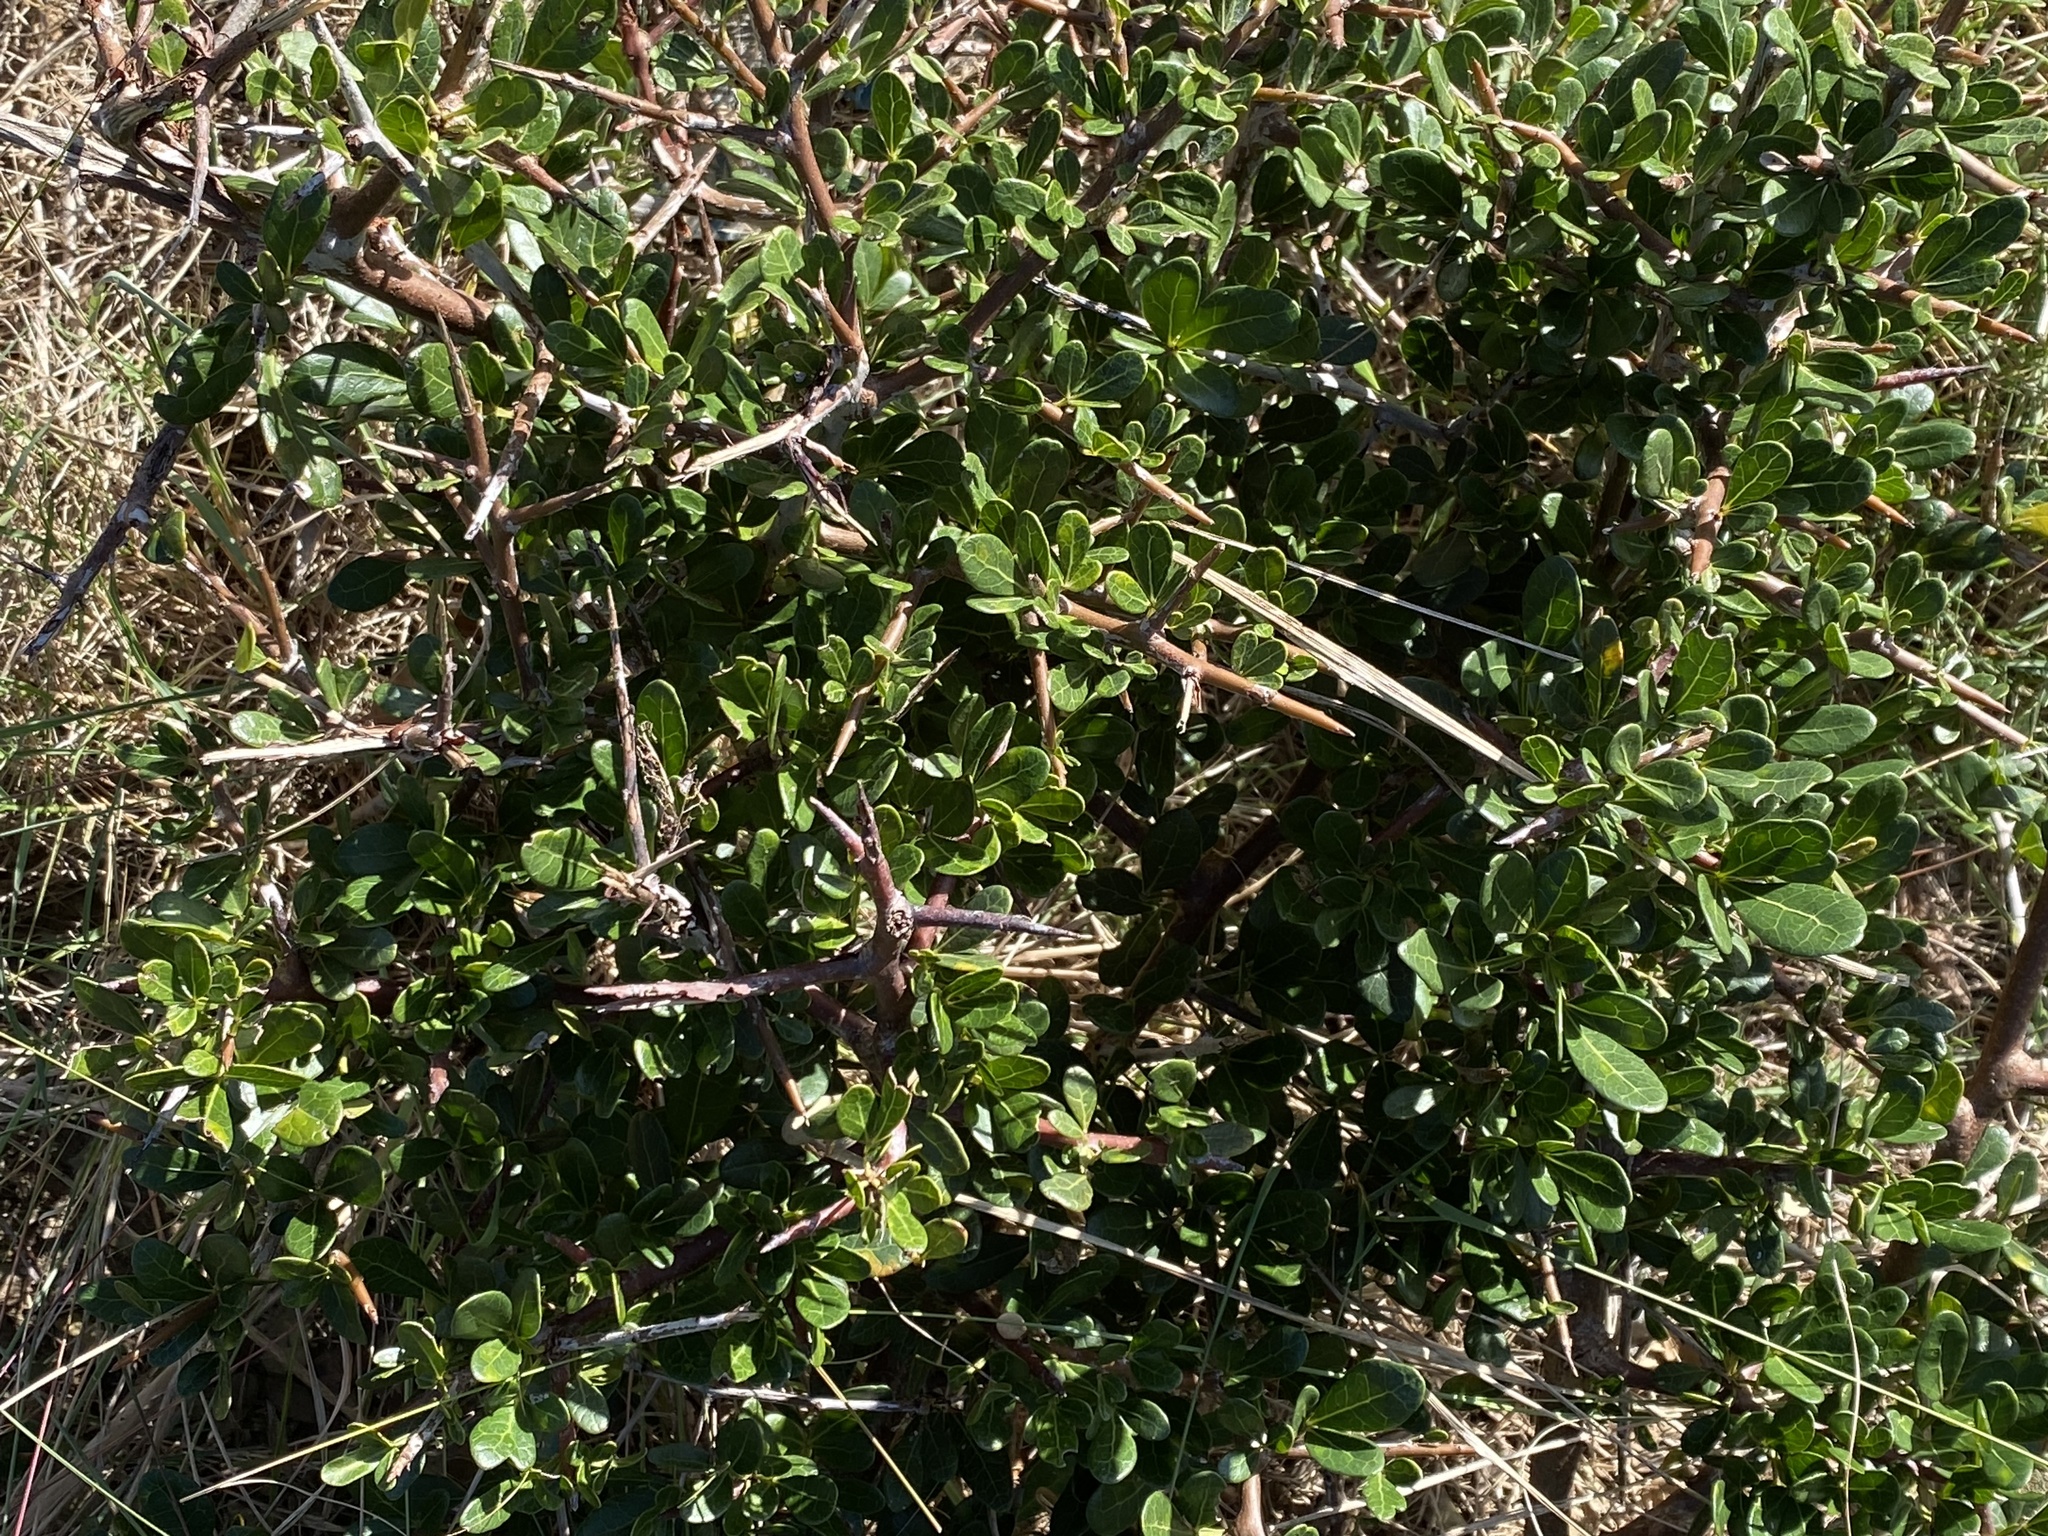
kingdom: Plantae
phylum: Tracheophyta
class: Magnoliopsida
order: Sapindales
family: Anacardiaceae
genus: Searsia
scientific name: Searsia pterota
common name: Winged currant
